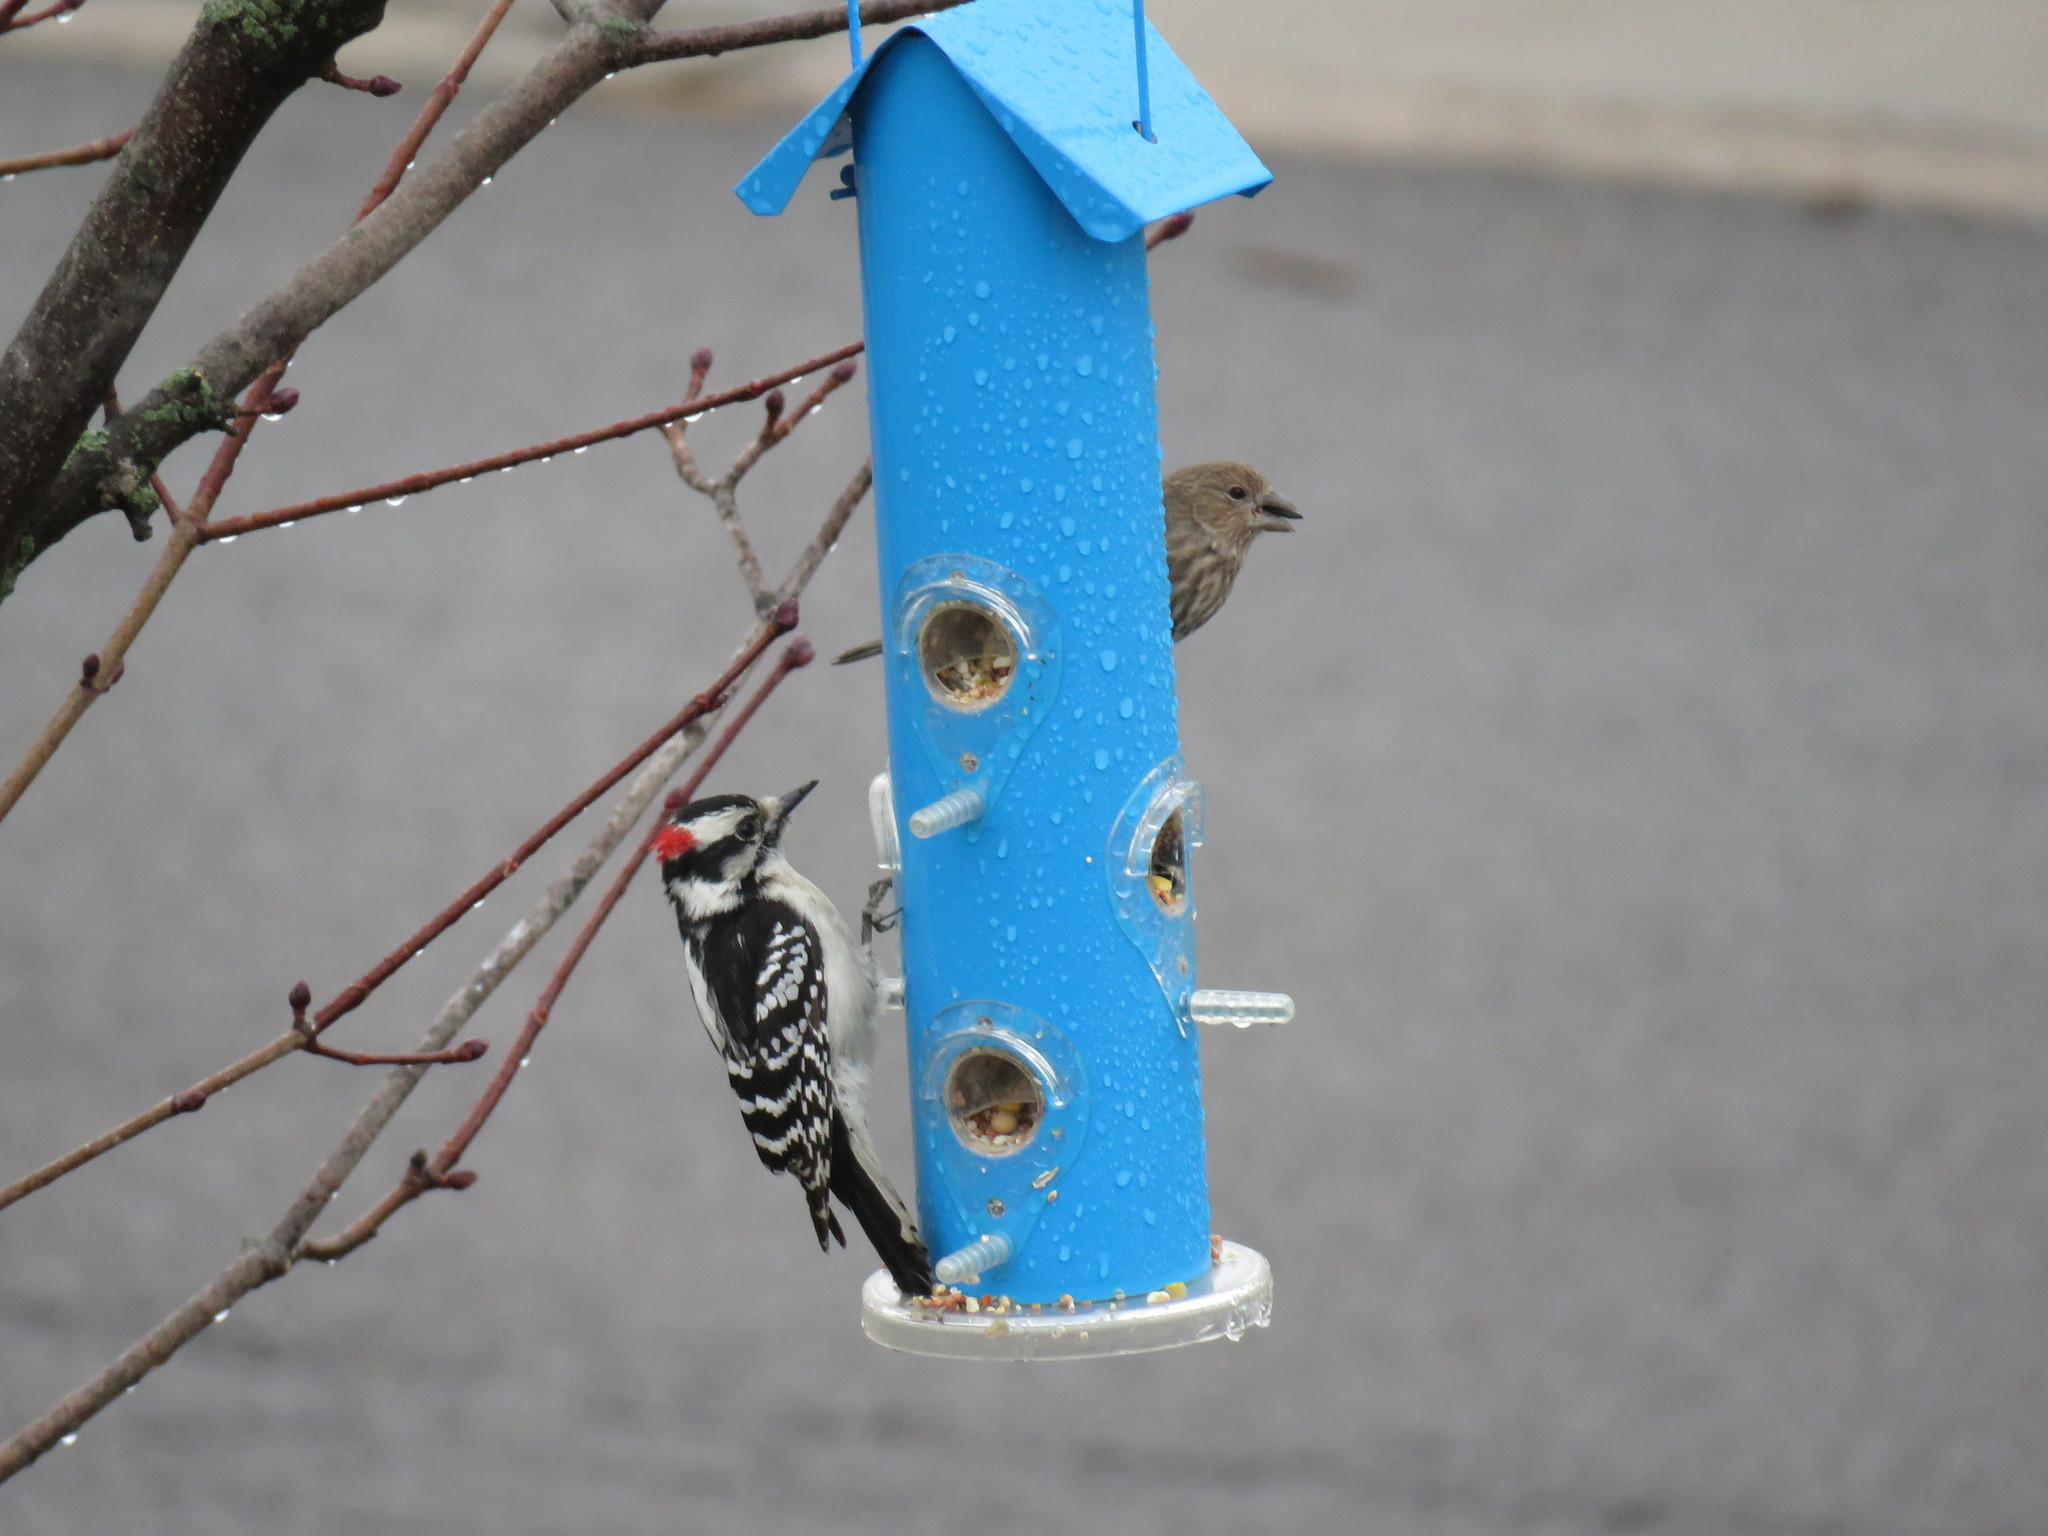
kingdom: Animalia
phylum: Chordata
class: Aves
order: Piciformes
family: Picidae
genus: Dryobates
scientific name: Dryobates pubescens
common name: Downy woodpecker
